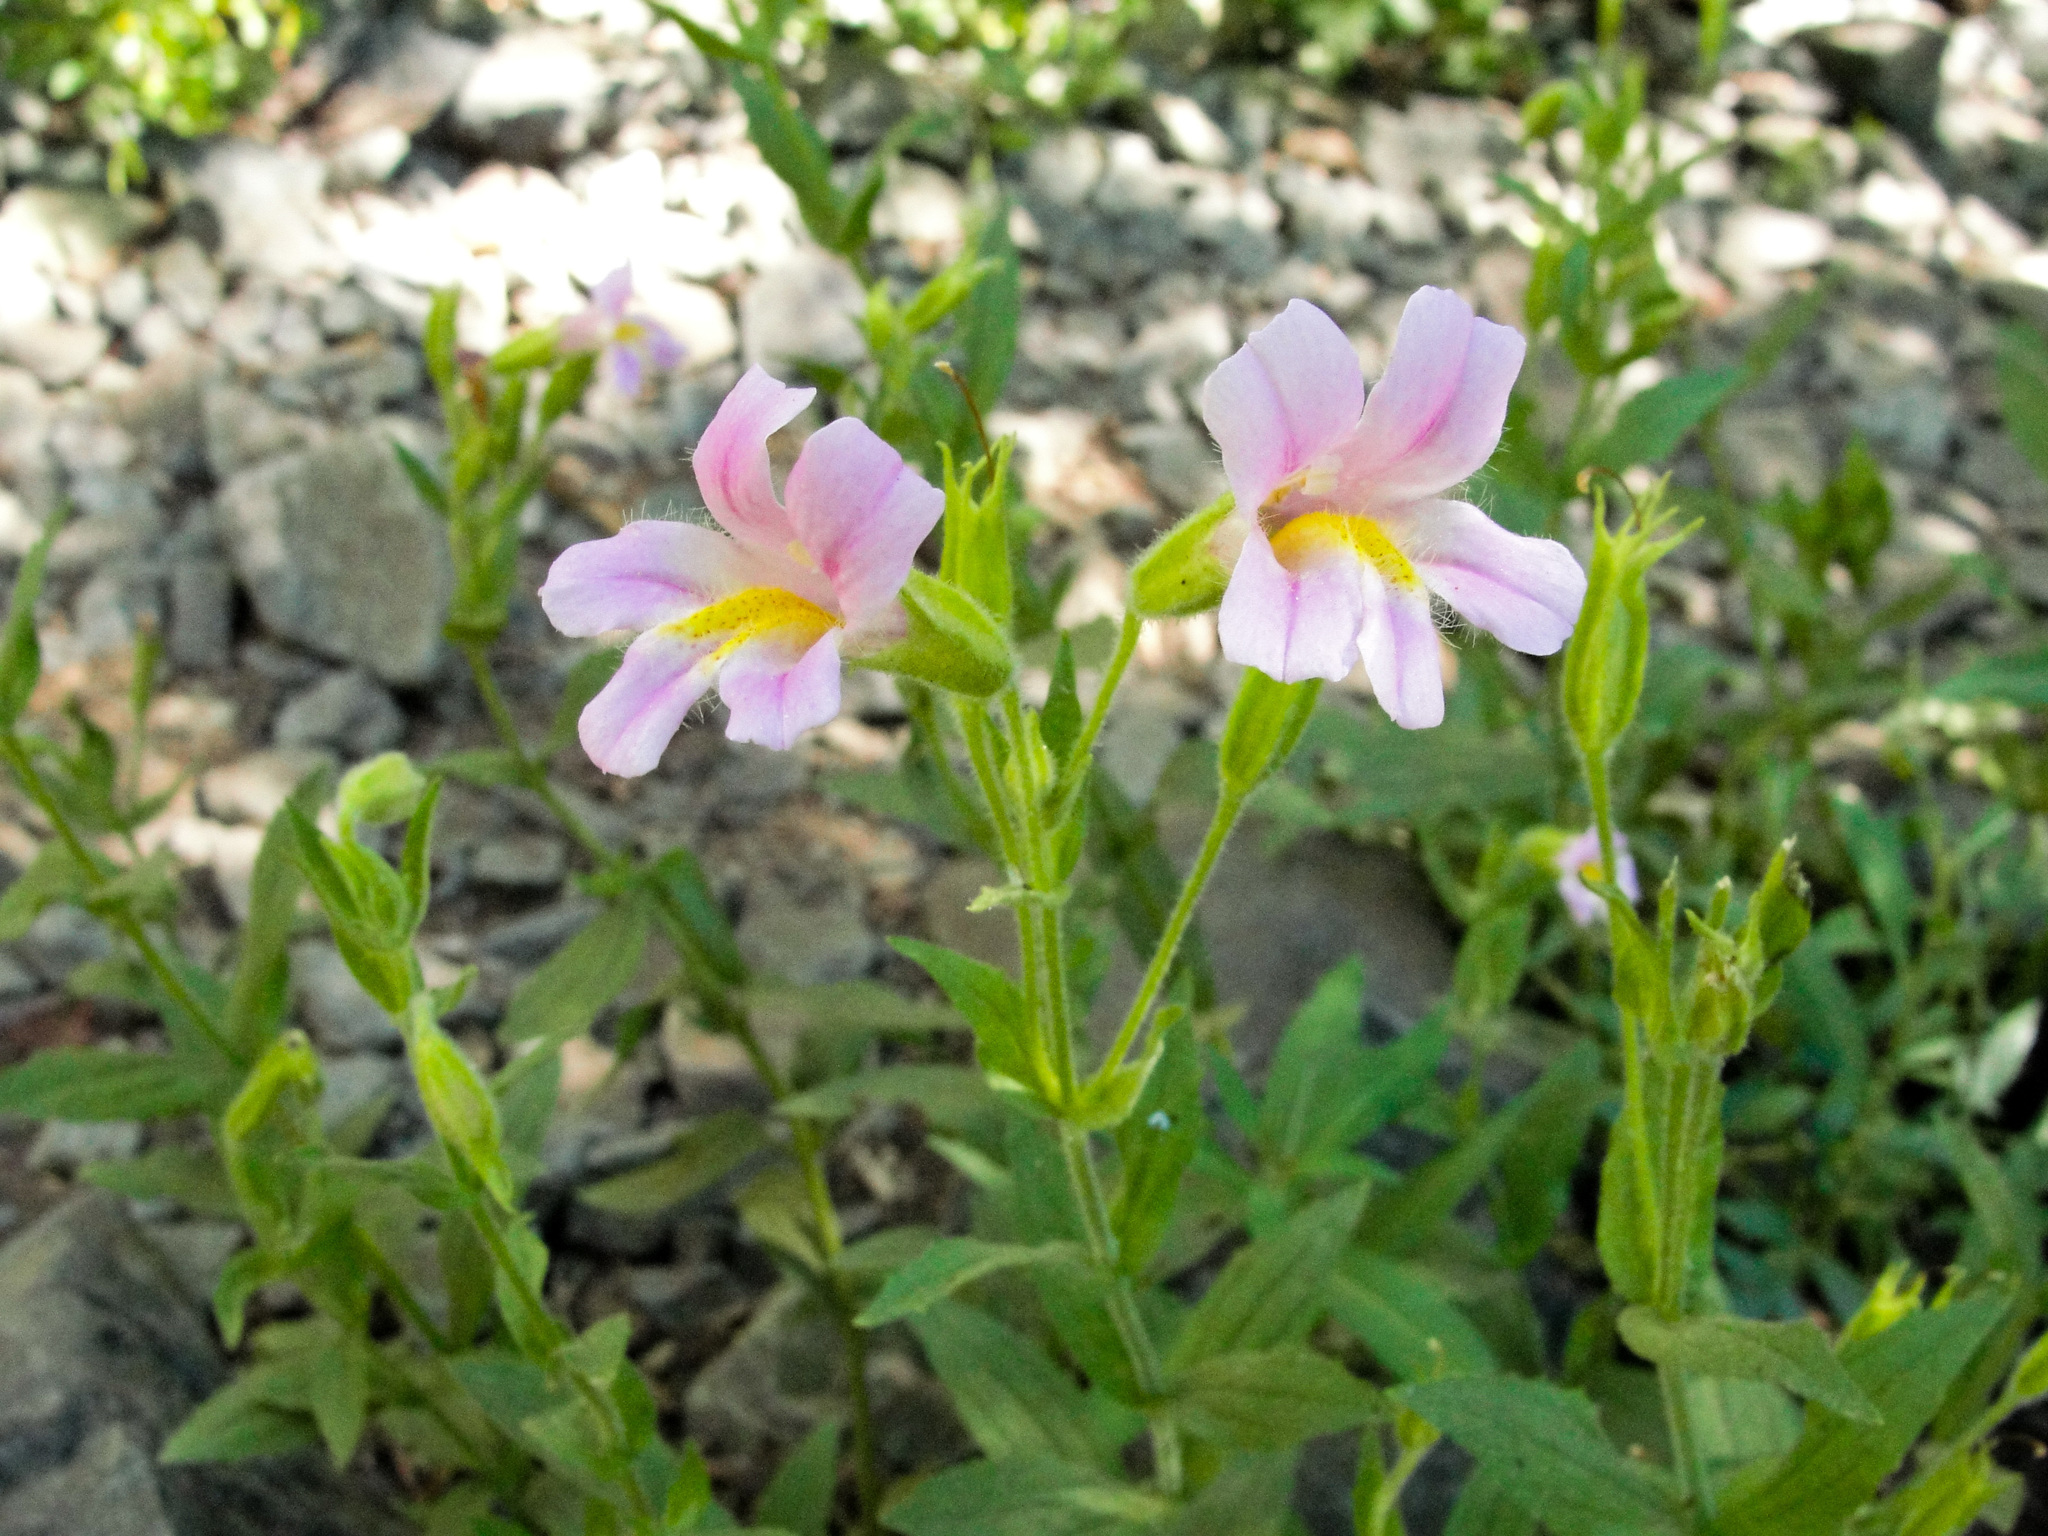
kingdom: Plantae
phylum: Tracheophyta
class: Magnoliopsida
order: Lamiales
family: Phrymaceae
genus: Erythranthe
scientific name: Erythranthe erubescens
